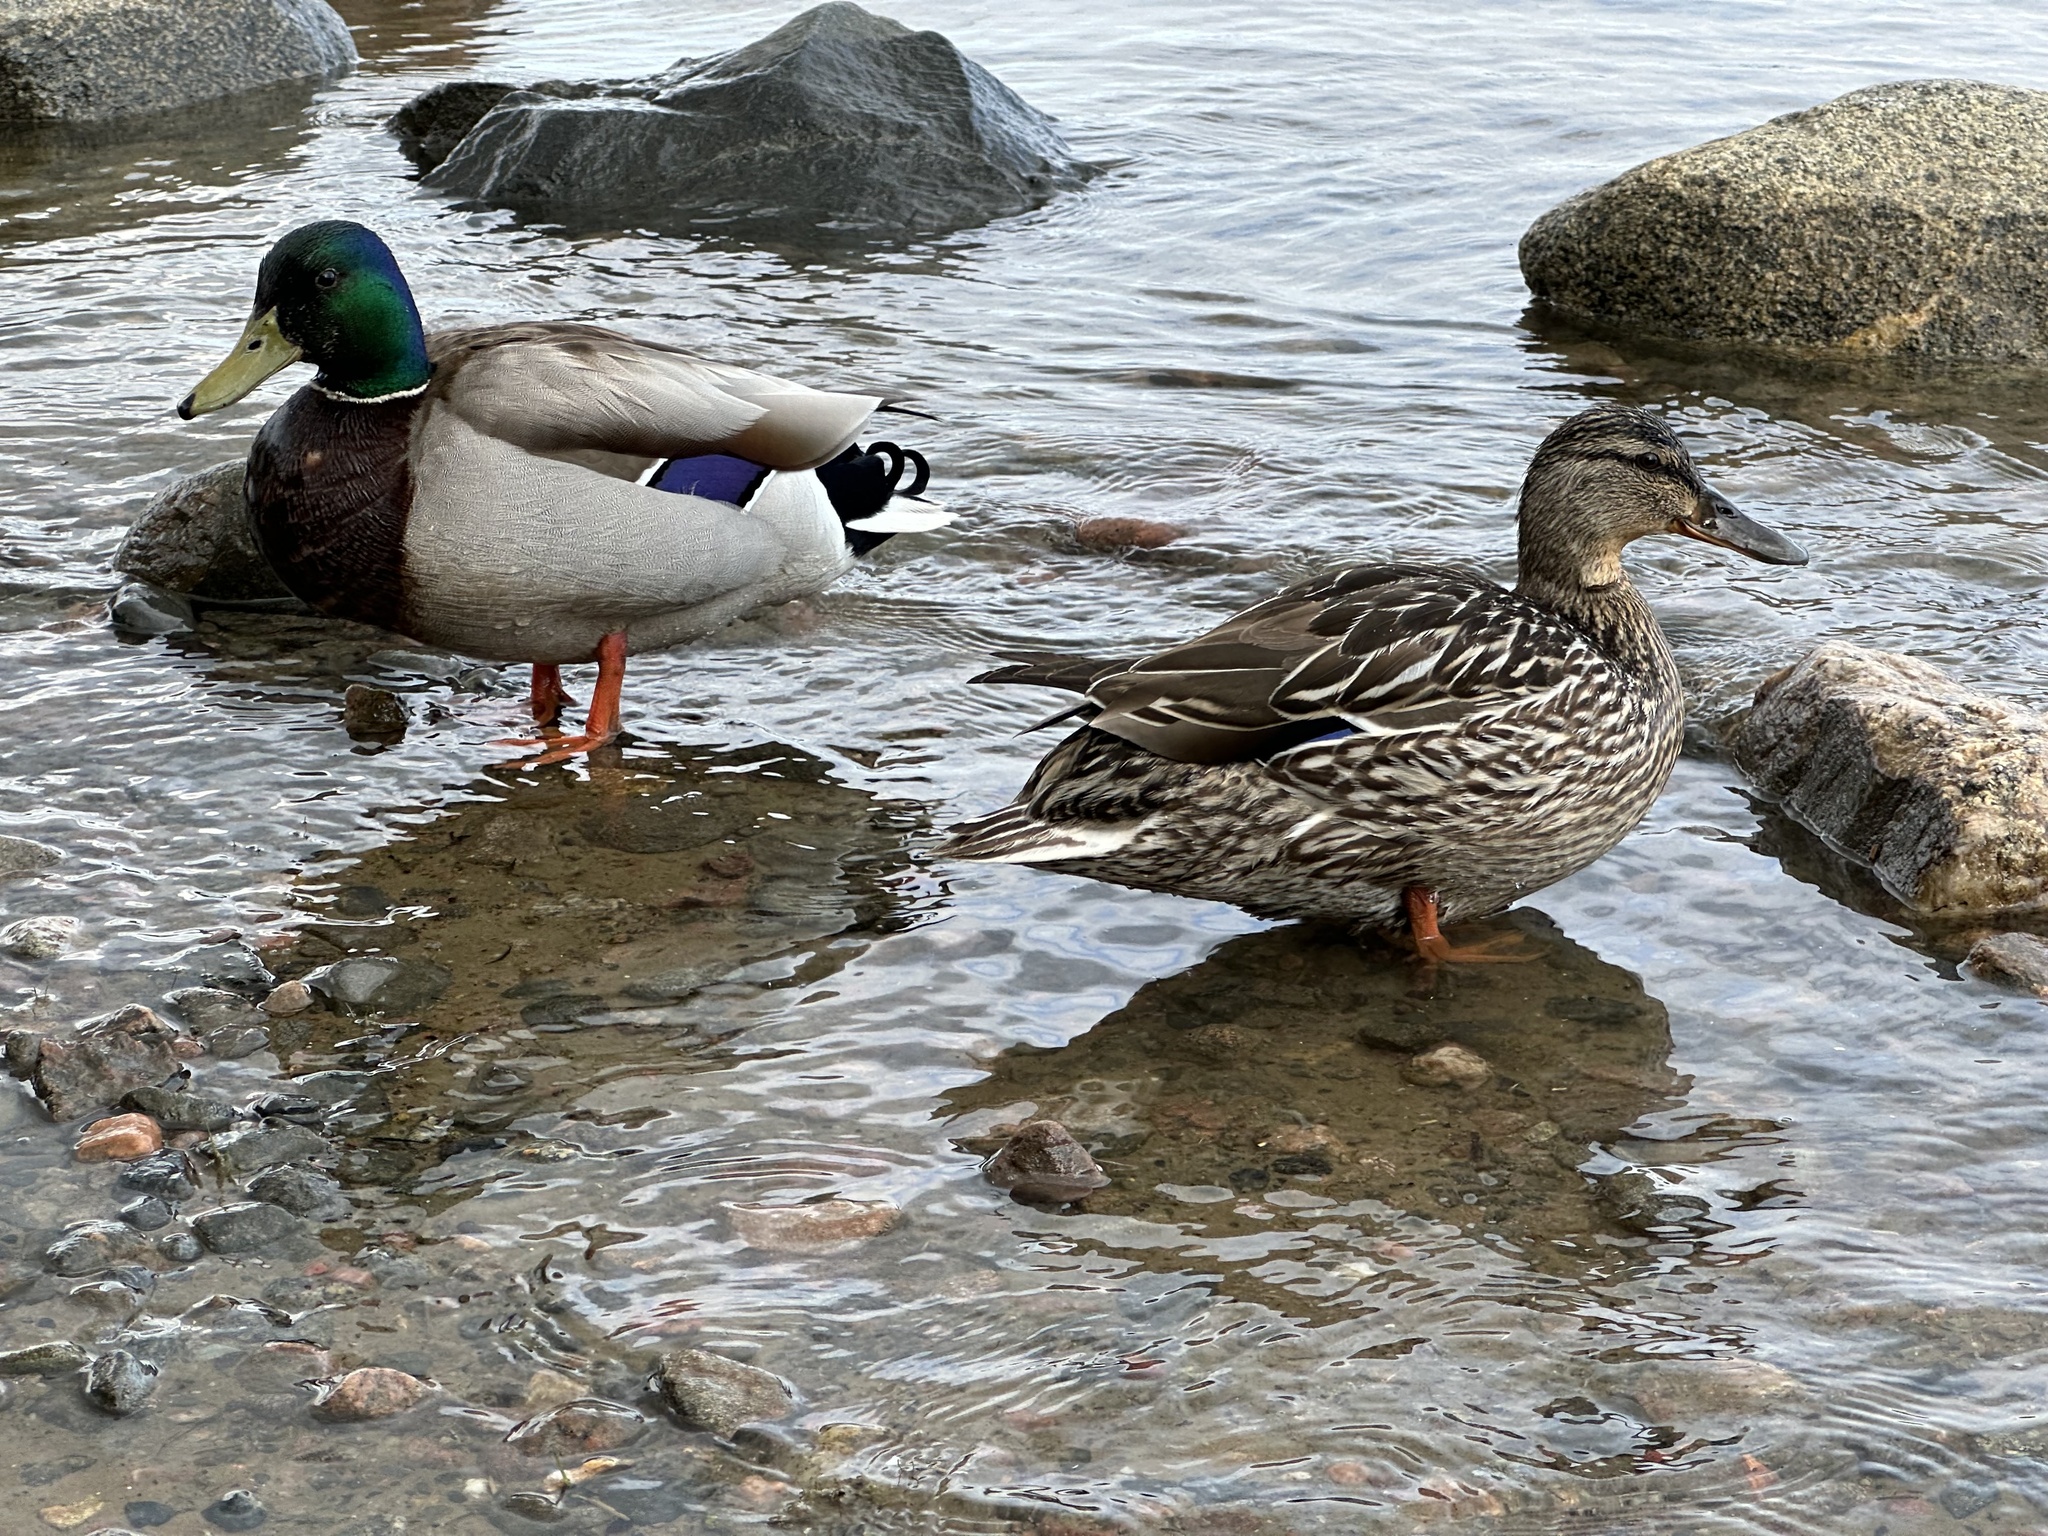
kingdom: Animalia
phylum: Chordata
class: Aves
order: Anseriformes
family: Anatidae
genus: Anas
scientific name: Anas platyrhynchos
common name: Mallard
